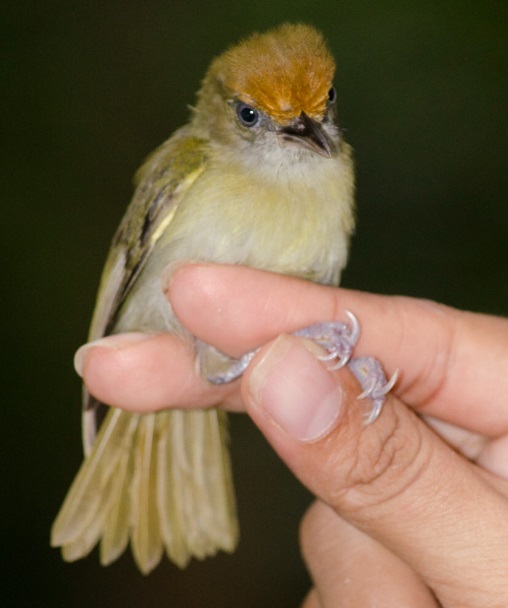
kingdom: Animalia
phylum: Chordata
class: Aves
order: Passeriformes
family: Vireonidae
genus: Hylophilus
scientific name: Hylophilus ochraceiceps
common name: Tawny-crowned greenlet
